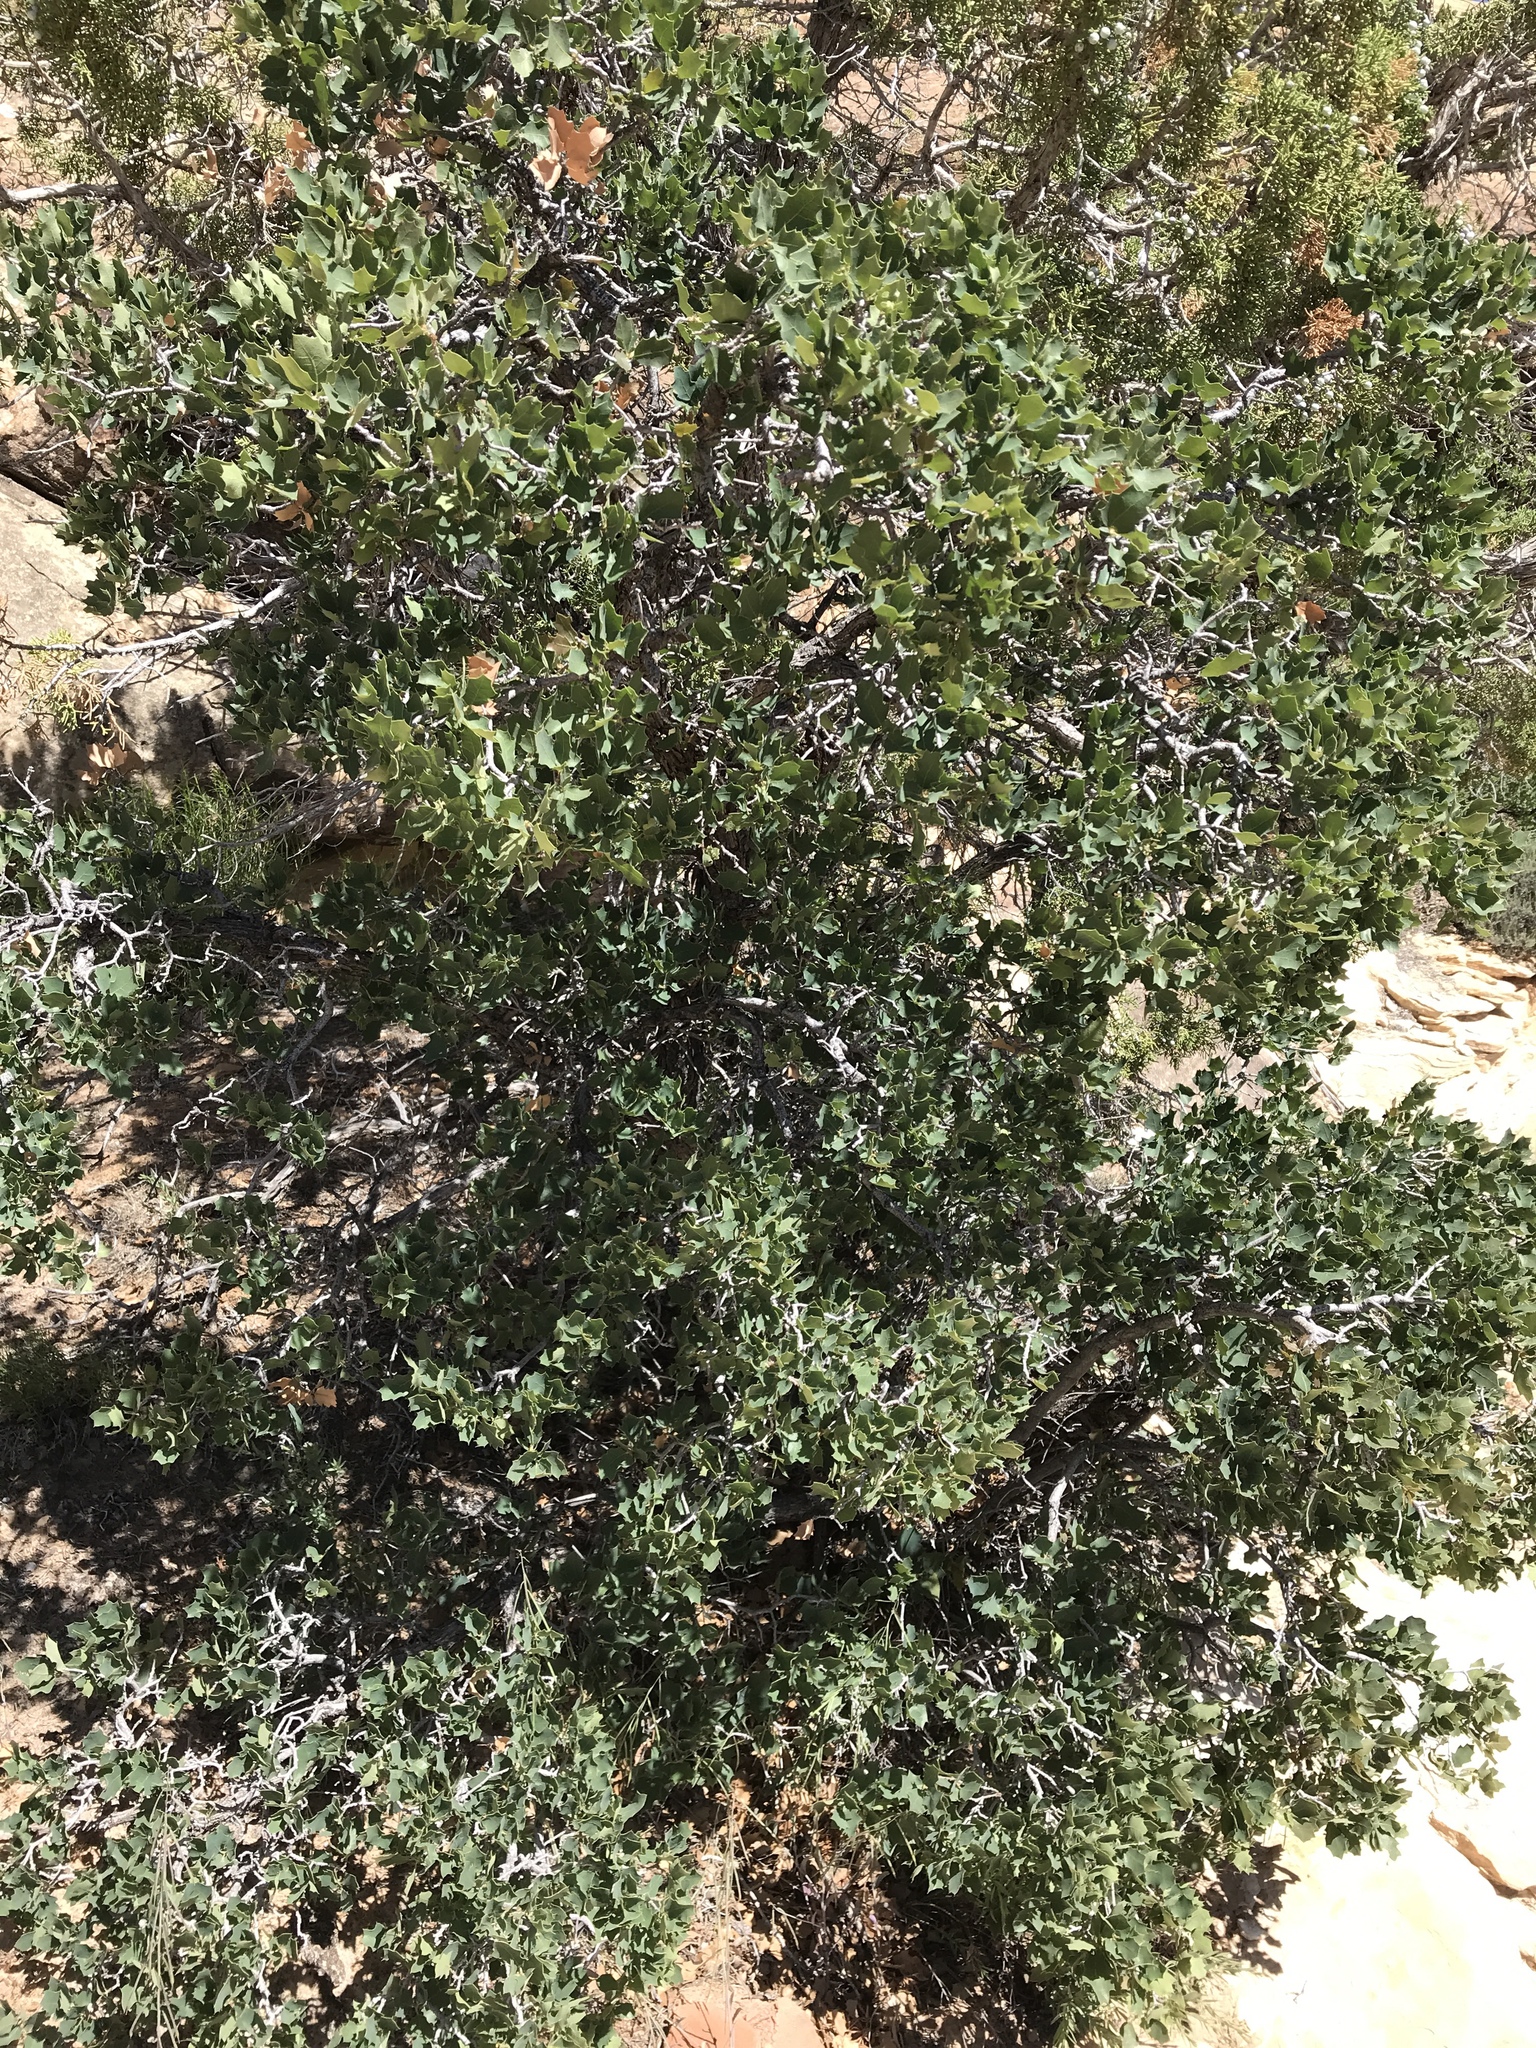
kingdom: Plantae
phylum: Tracheophyta
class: Magnoliopsida
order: Fagales
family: Fagaceae
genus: Quercus
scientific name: Quercus turbinella
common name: Sonoran scrub oak
